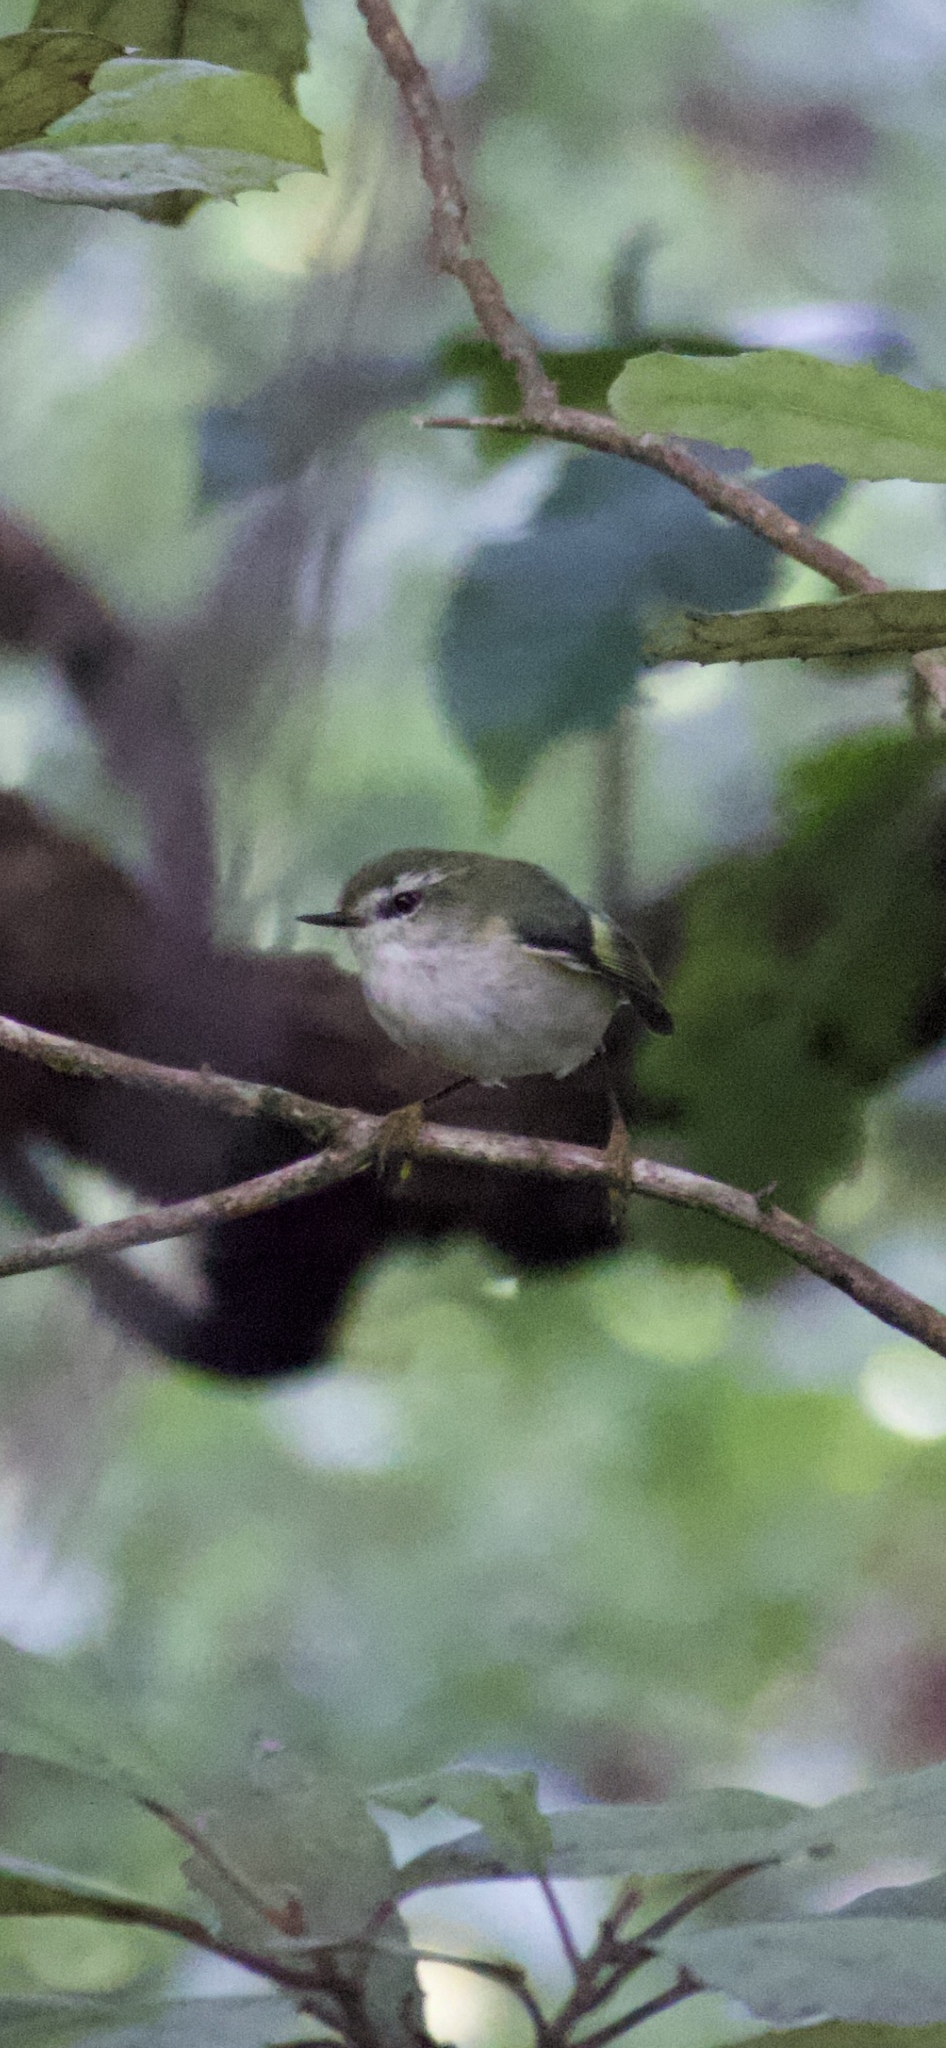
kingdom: Animalia
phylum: Chordata
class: Aves
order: Passeriformes
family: Acanthisittidae
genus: Acanthisitta
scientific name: Acanthisitta chloris
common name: Rifleman
